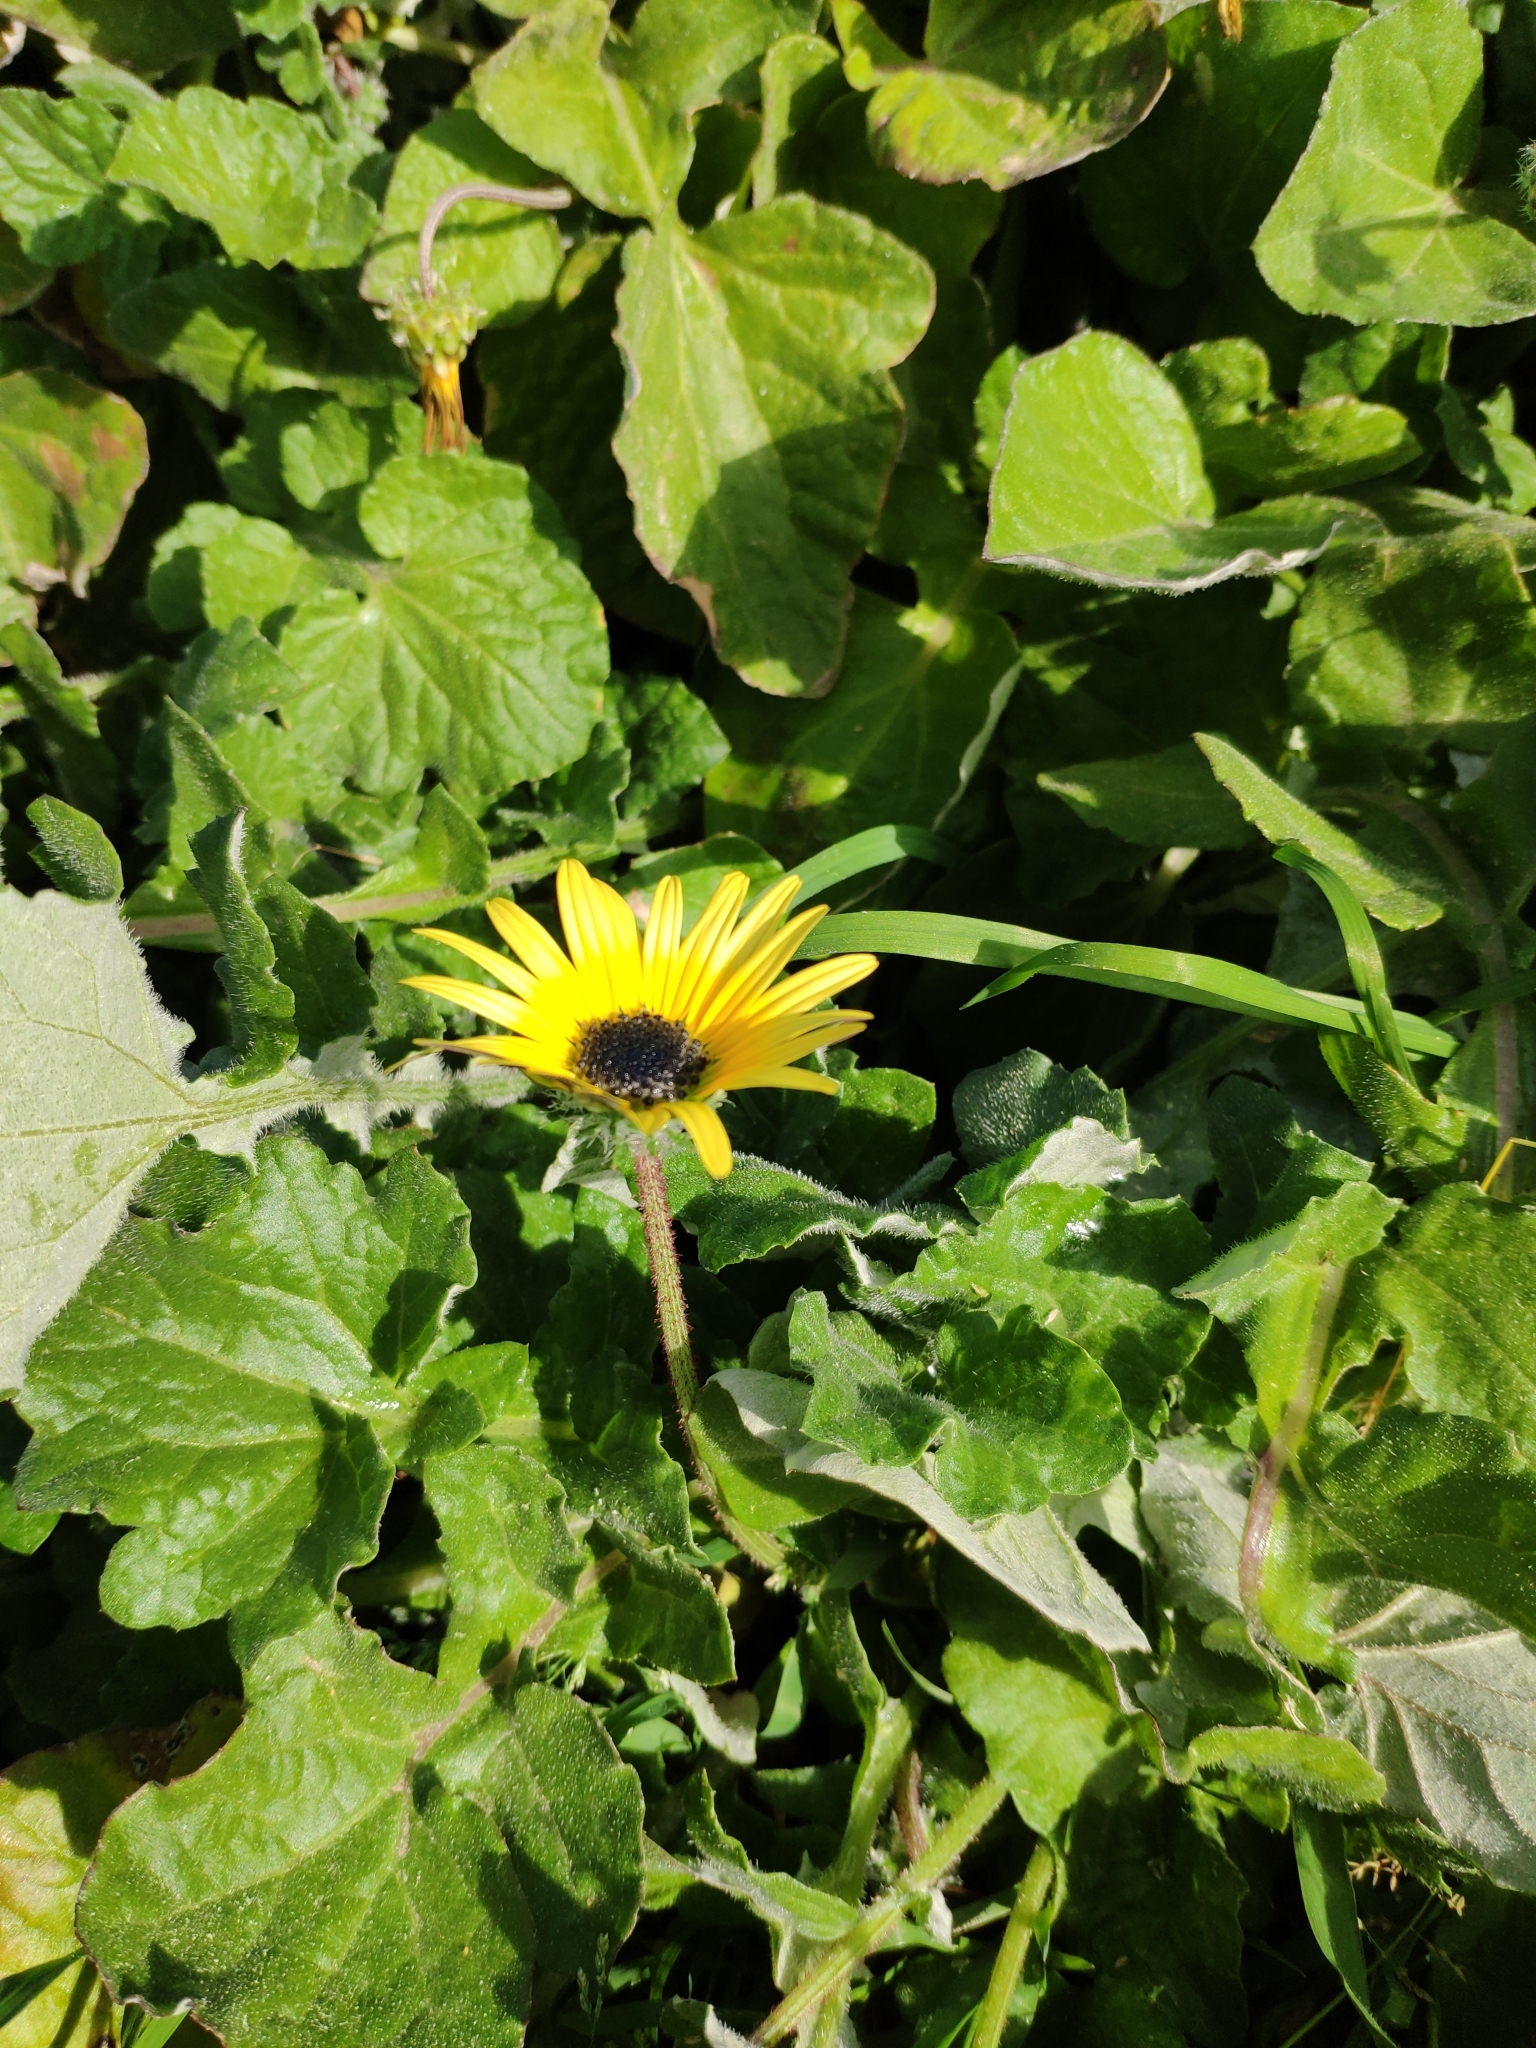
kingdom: Plantae
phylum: Tracheophyta
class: Magnoliopsida
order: Asterales
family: Asteraceae
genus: Arctotheca
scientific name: Arctotheca calendula
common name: Capeweed
